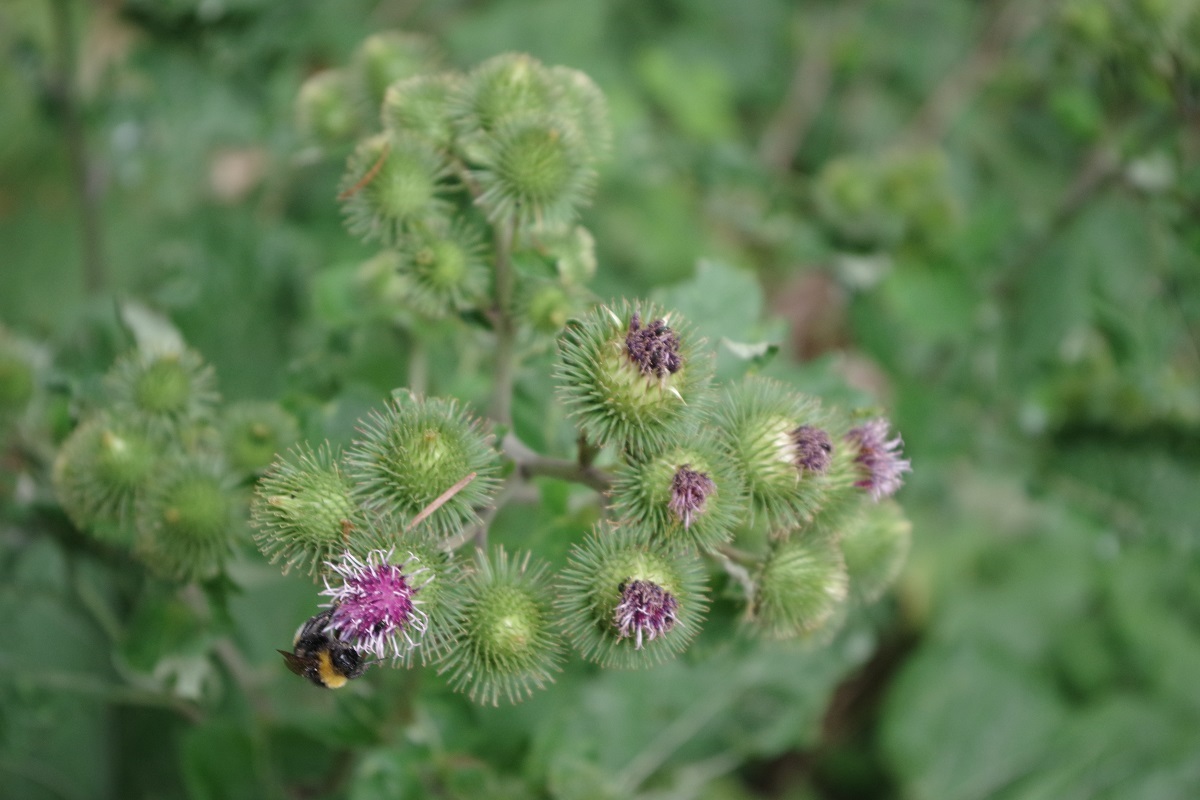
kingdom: Plantae
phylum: Tracheophyta
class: Magnoliopsida
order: Asterales
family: Asteraceae
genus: Arctium
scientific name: Arctium lappa
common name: Greater burdock
